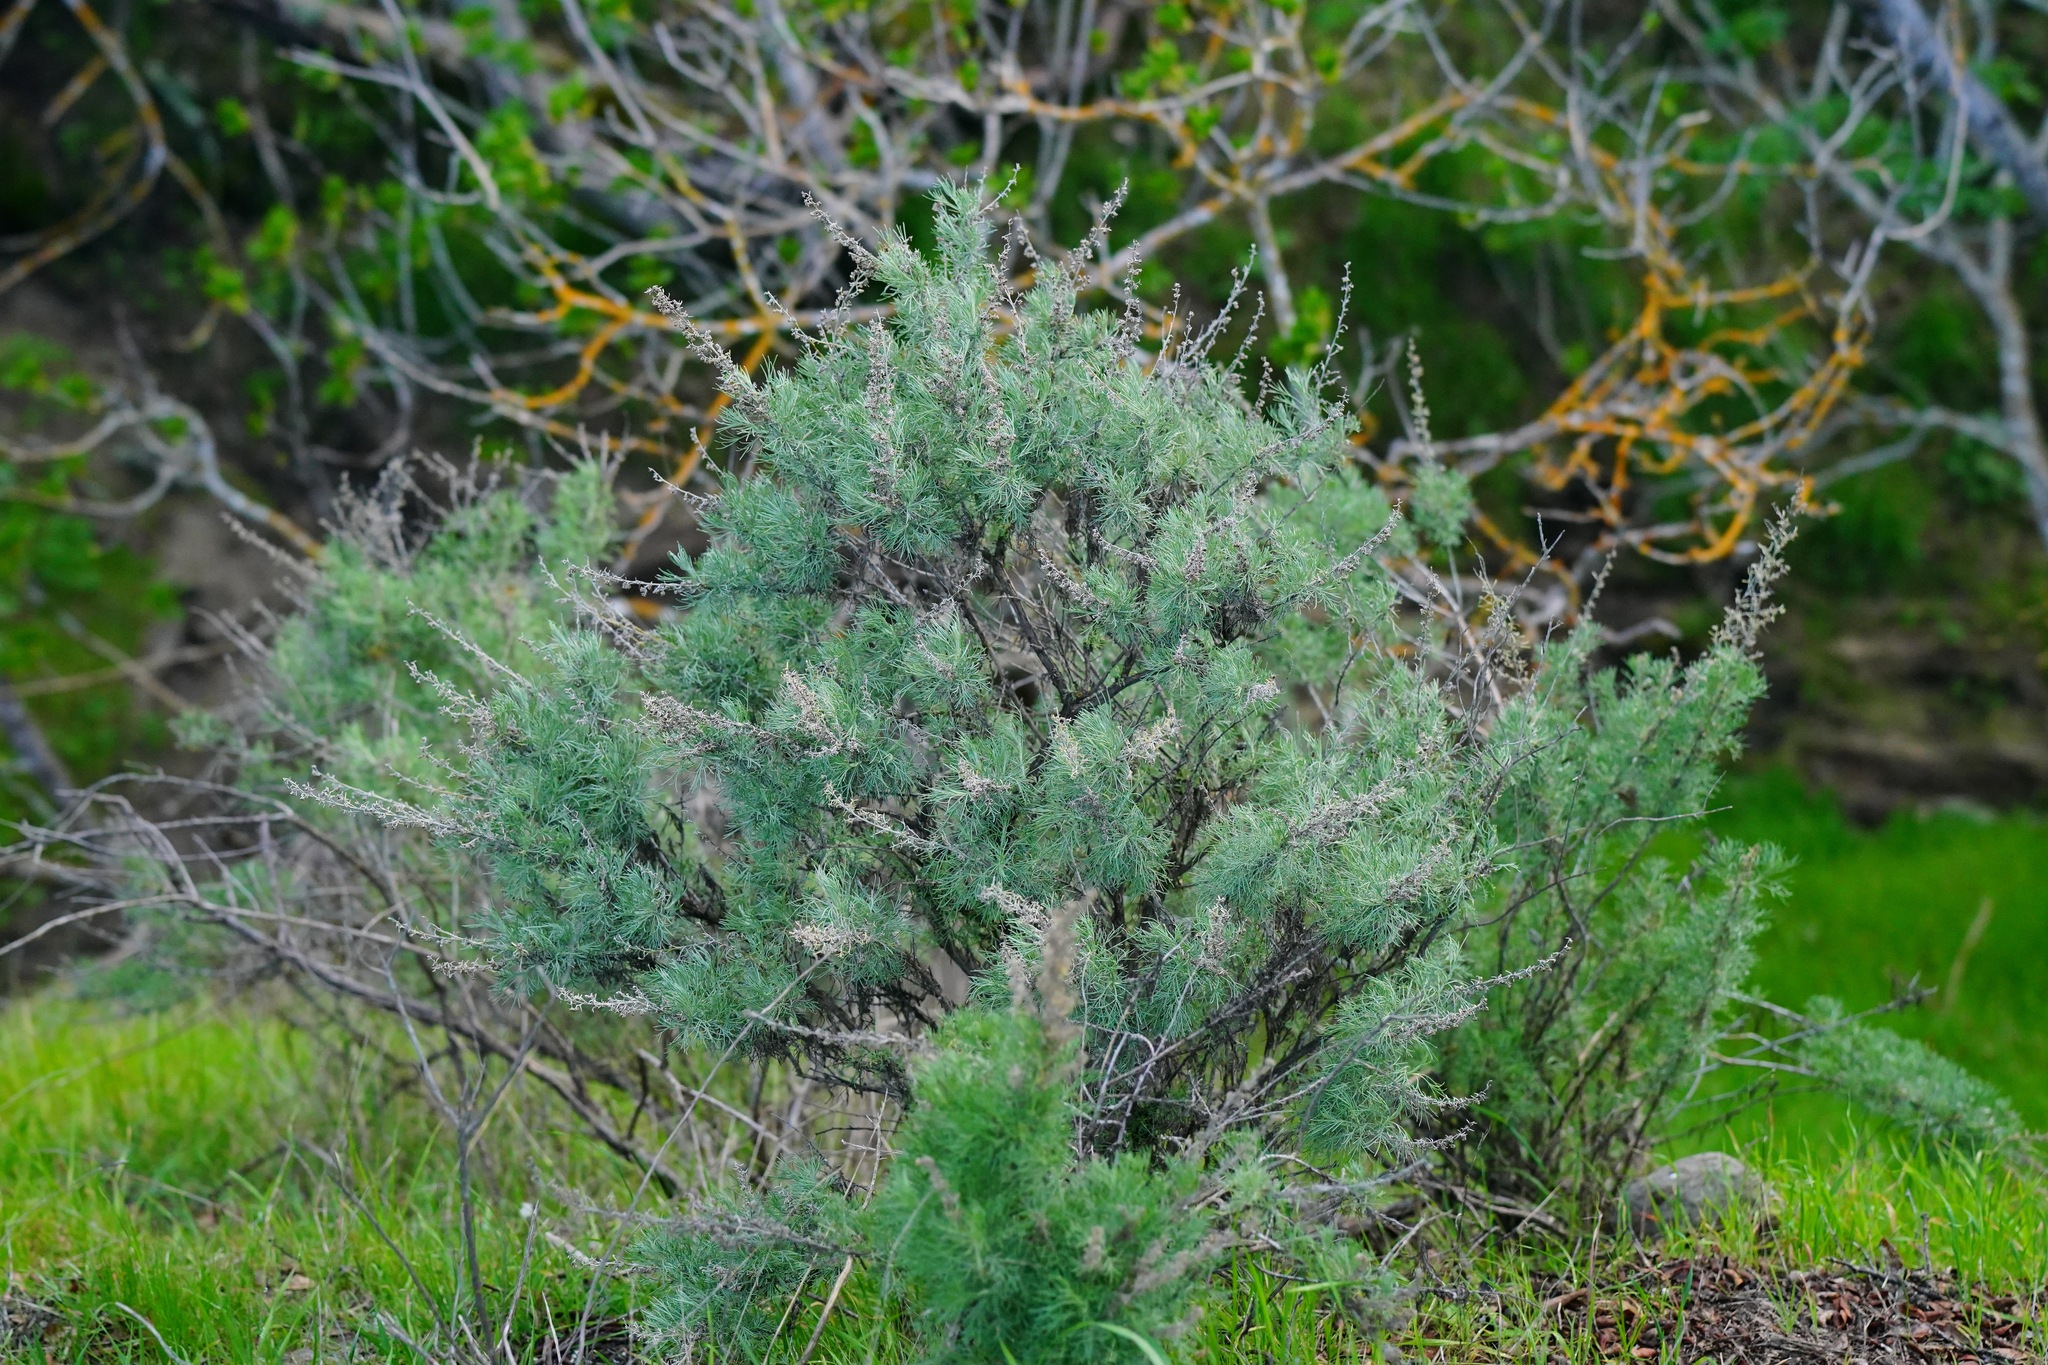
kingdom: Plantae
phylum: Tracheophyta
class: Magnoliopsida
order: Asterales
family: Asteraceae
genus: Artemisia
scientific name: Artemisia californica
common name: California sagebrush
